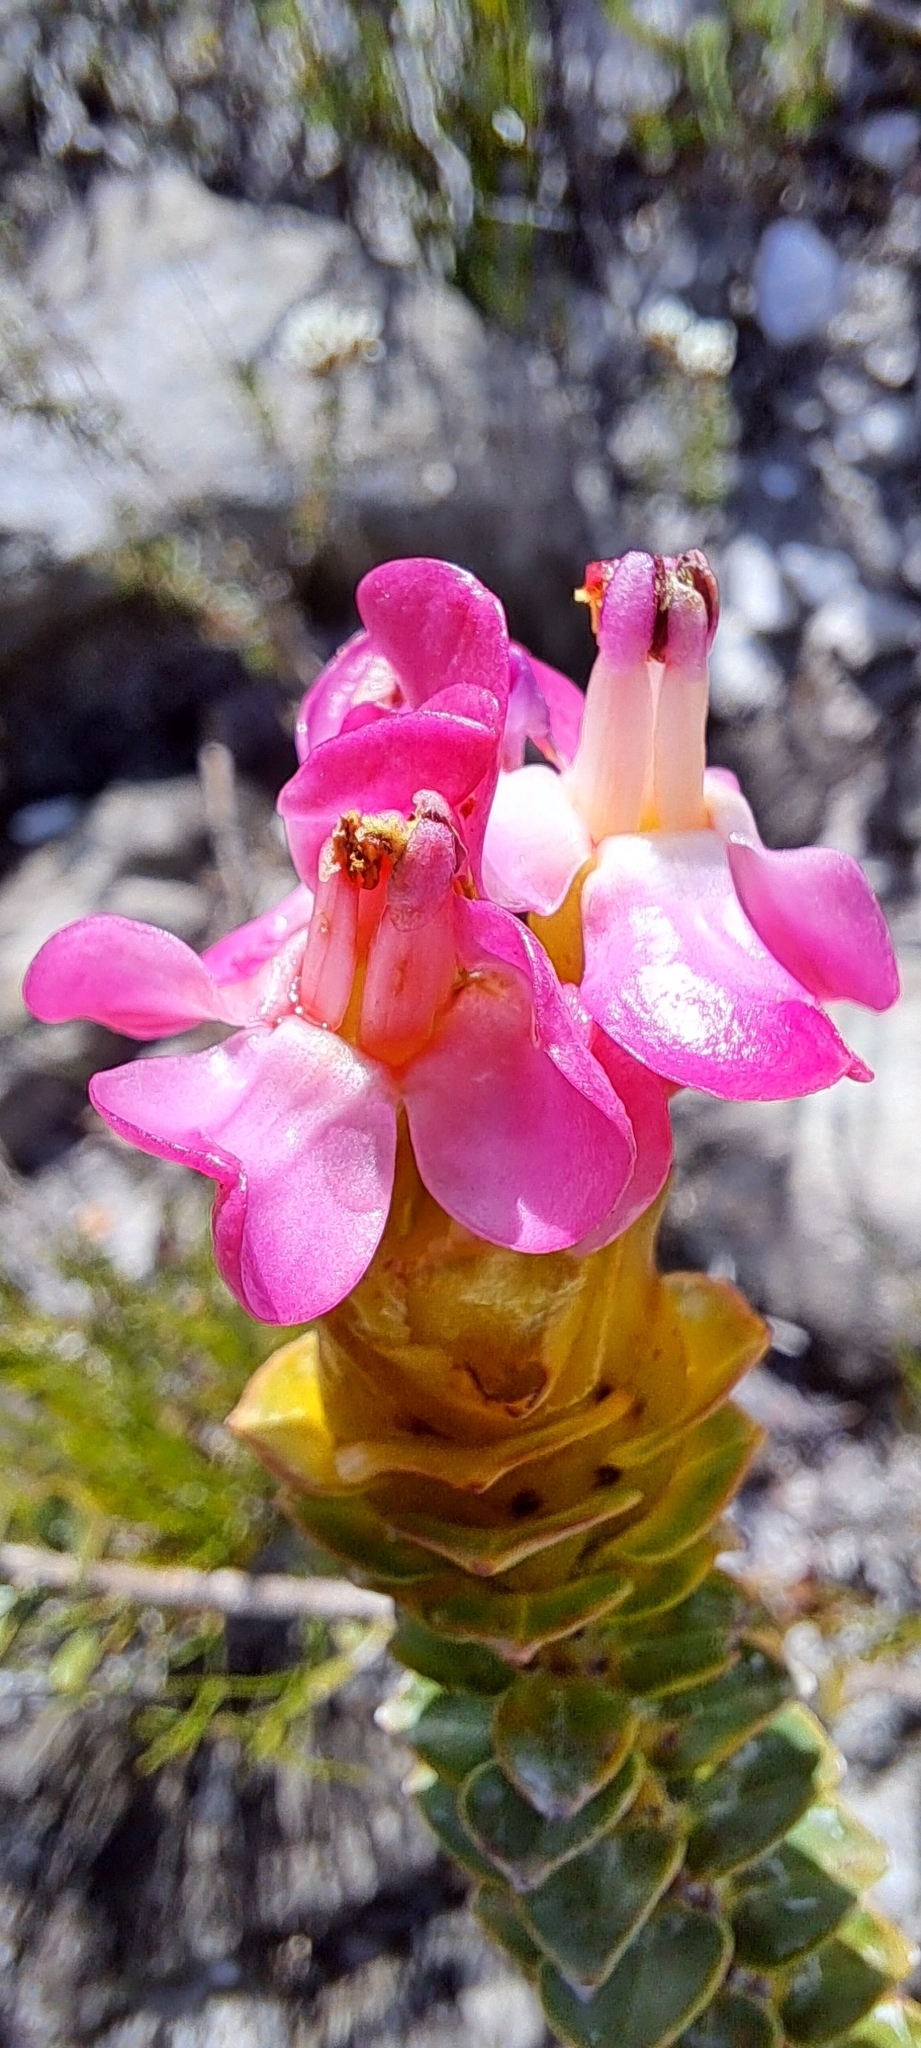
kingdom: Plantae
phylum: Tracheophyta
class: Magnoliopsida
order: Myrtales
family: Penaeaceae
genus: Saltera
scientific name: Saltera sarcocolla
